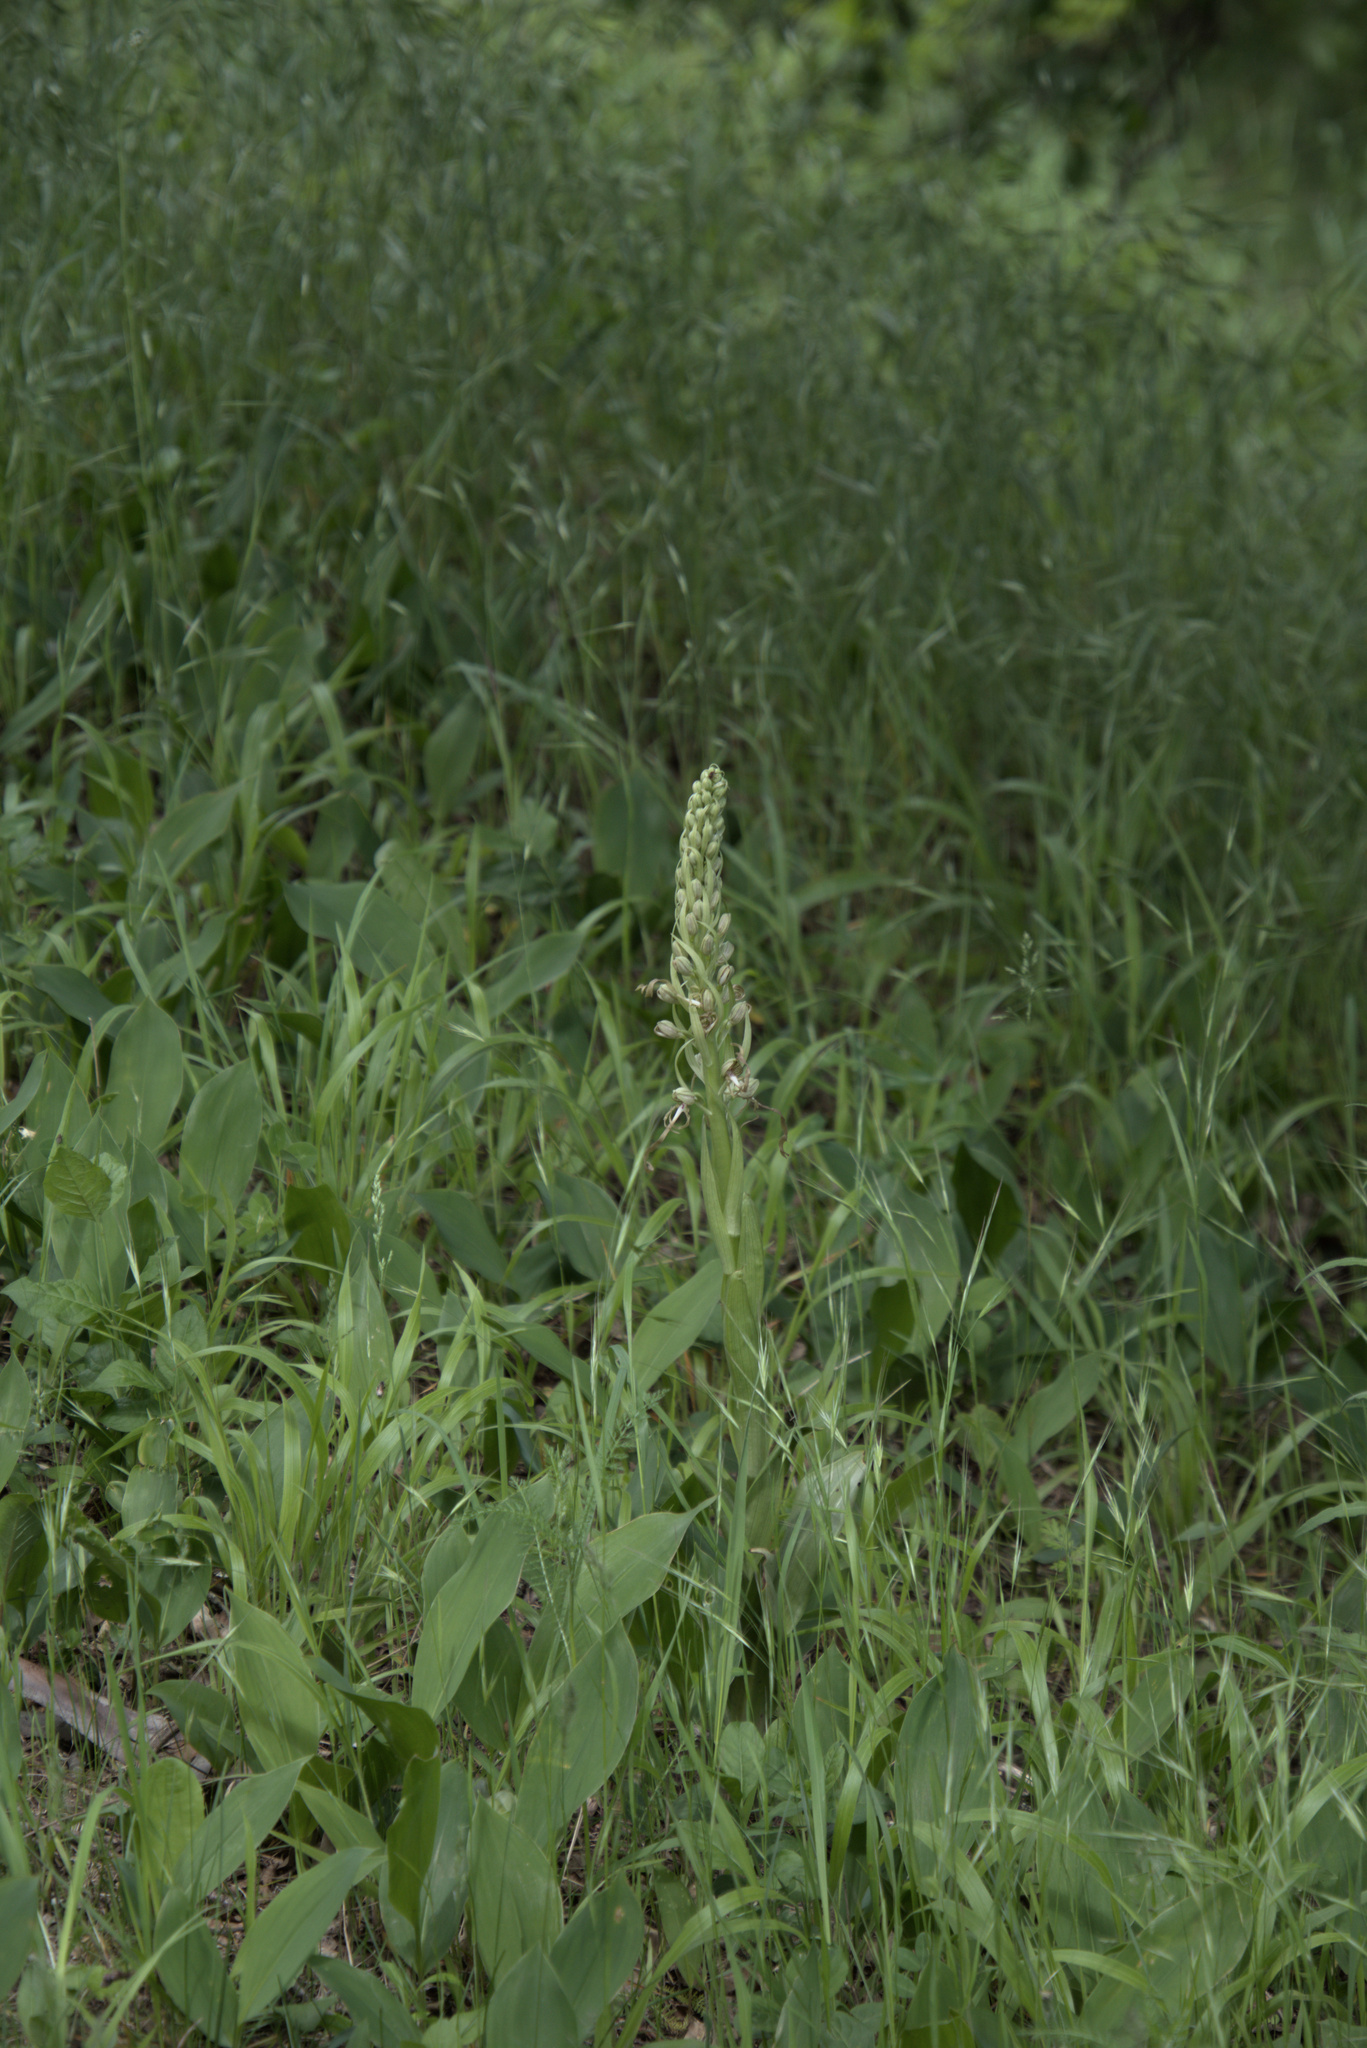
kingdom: Plantae
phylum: Tracheophyta
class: Liliopsida
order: Asparagales
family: Orchidaceae
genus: Himantoglossum
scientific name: Himantoglossum hircinum
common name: Lizard orchid
